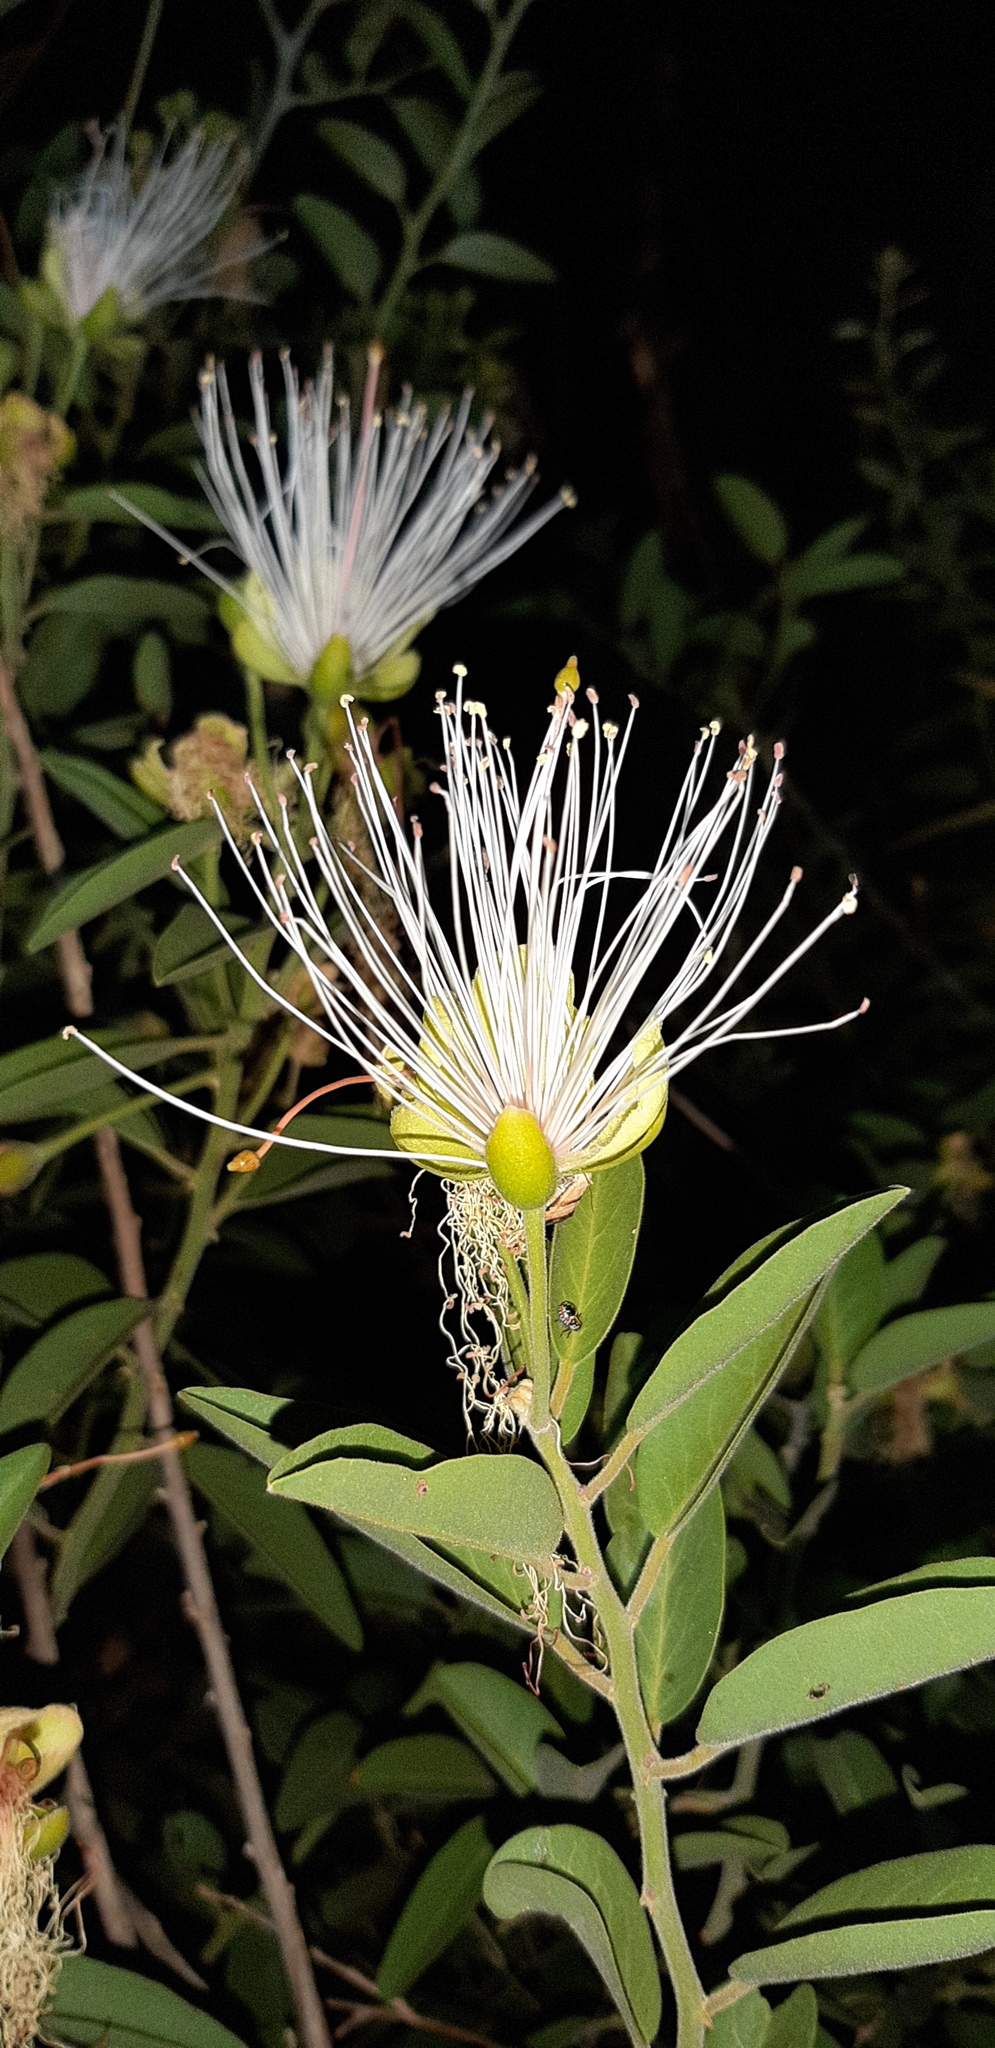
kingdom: Plantae
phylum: Tracheophyta
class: Magnoliopsida
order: Brassicales
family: Capparaceae
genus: Capparis
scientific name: Capparis tomentosa
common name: African caper
